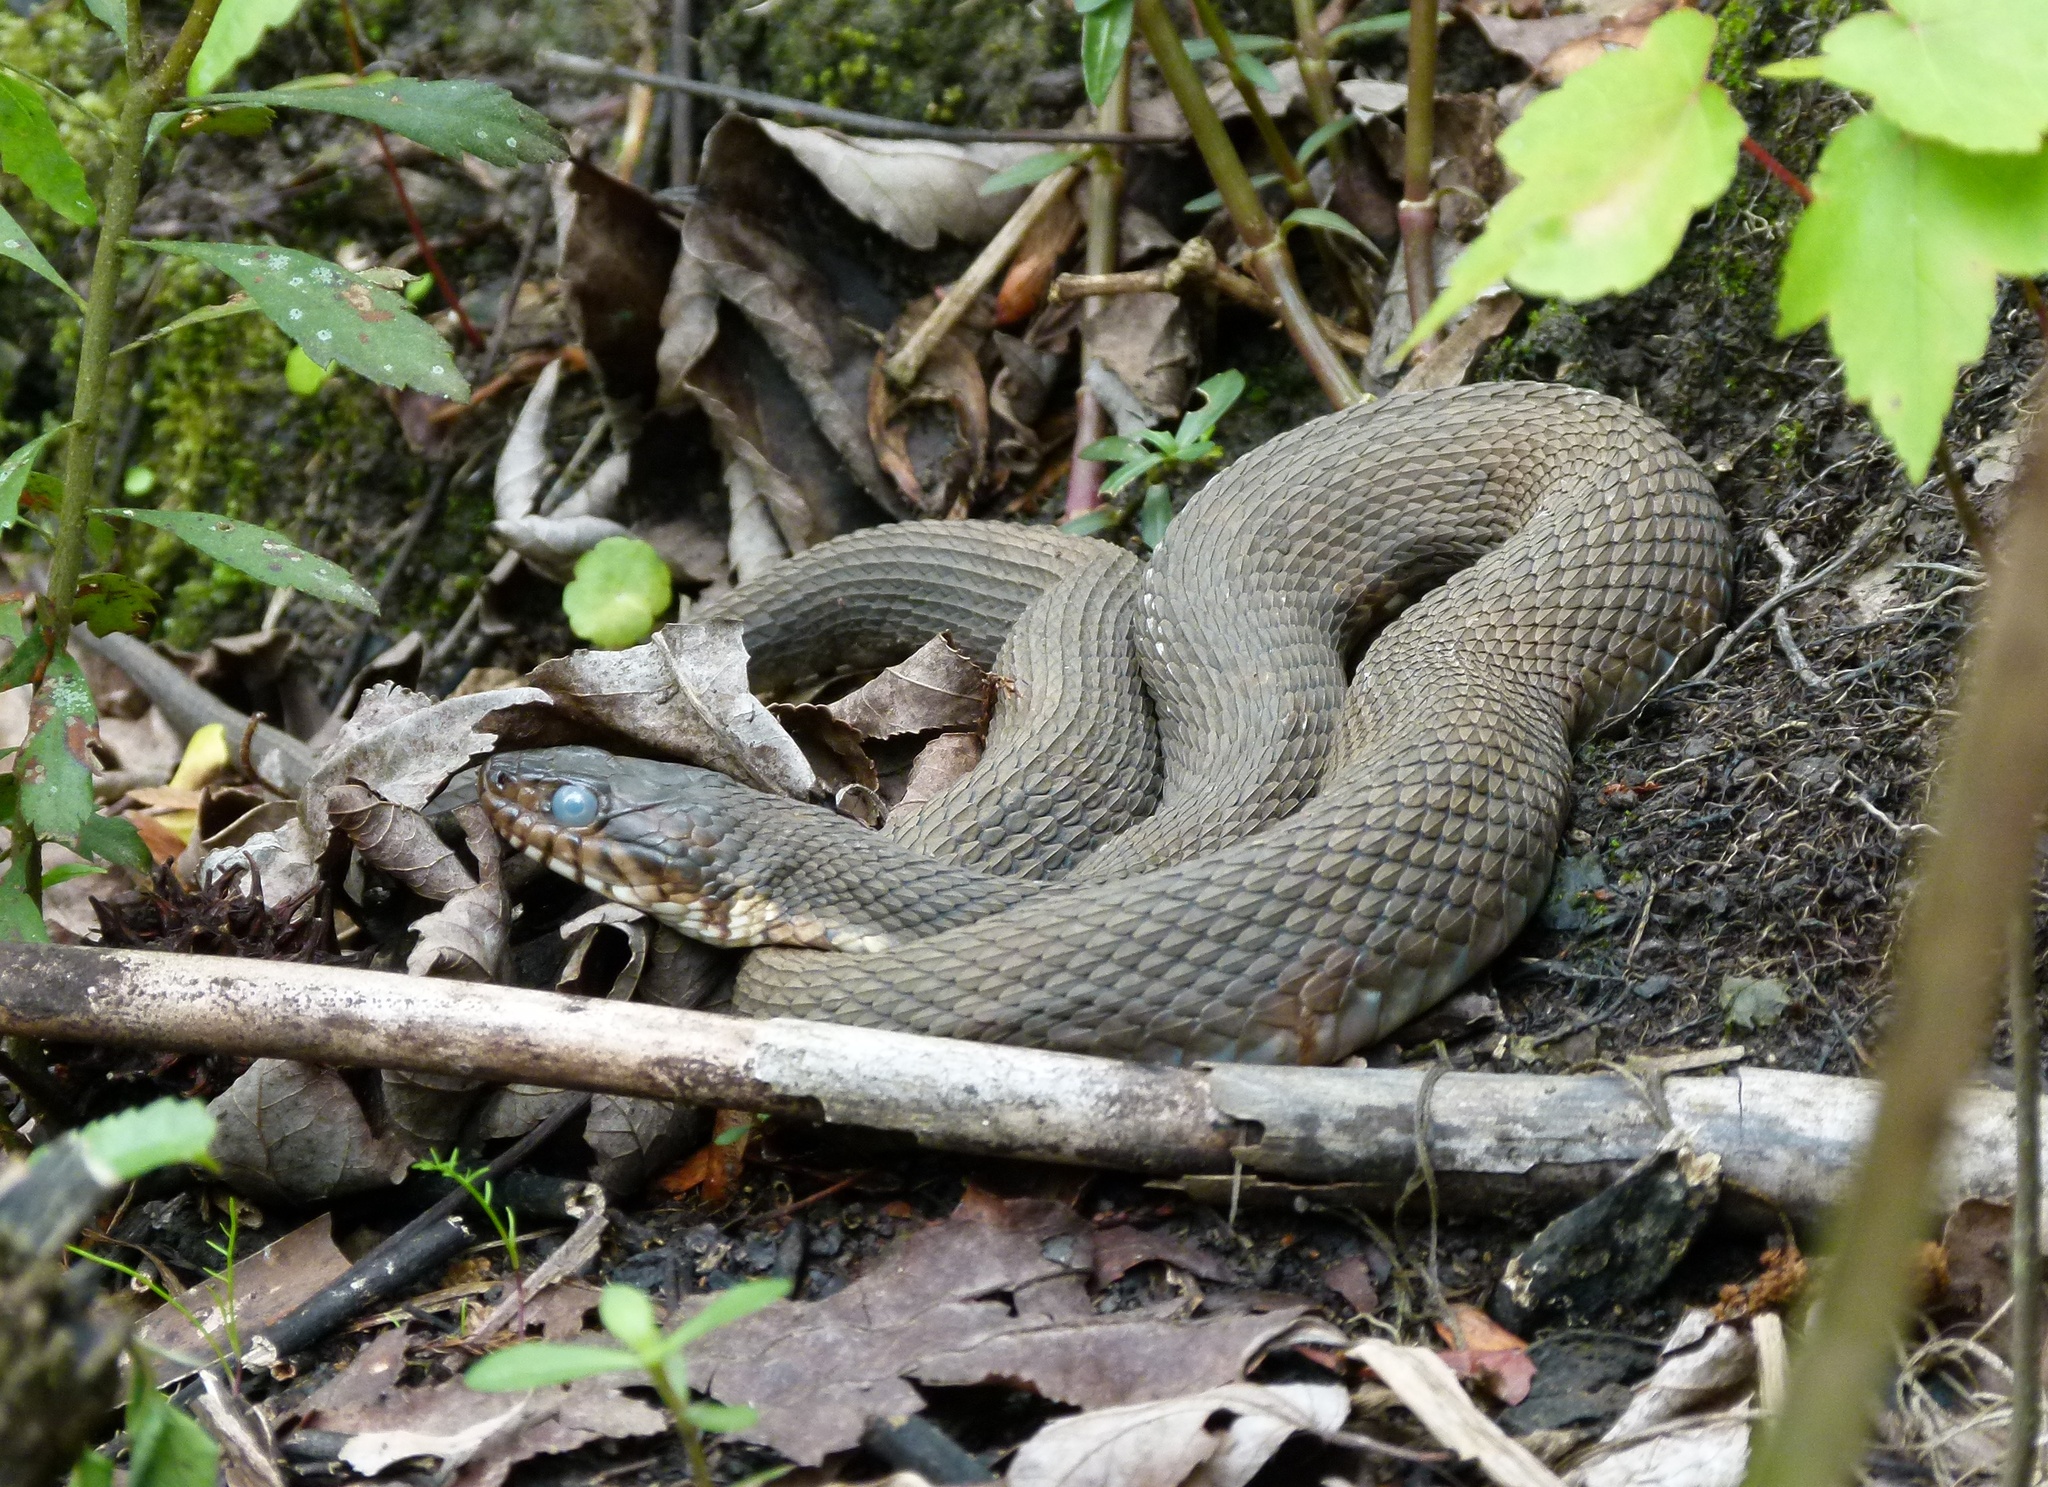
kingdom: Animalia
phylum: Chordata
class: Squamata
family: Colubridae
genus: Nerodia
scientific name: Nerodia fasciata
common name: Southern water snake
